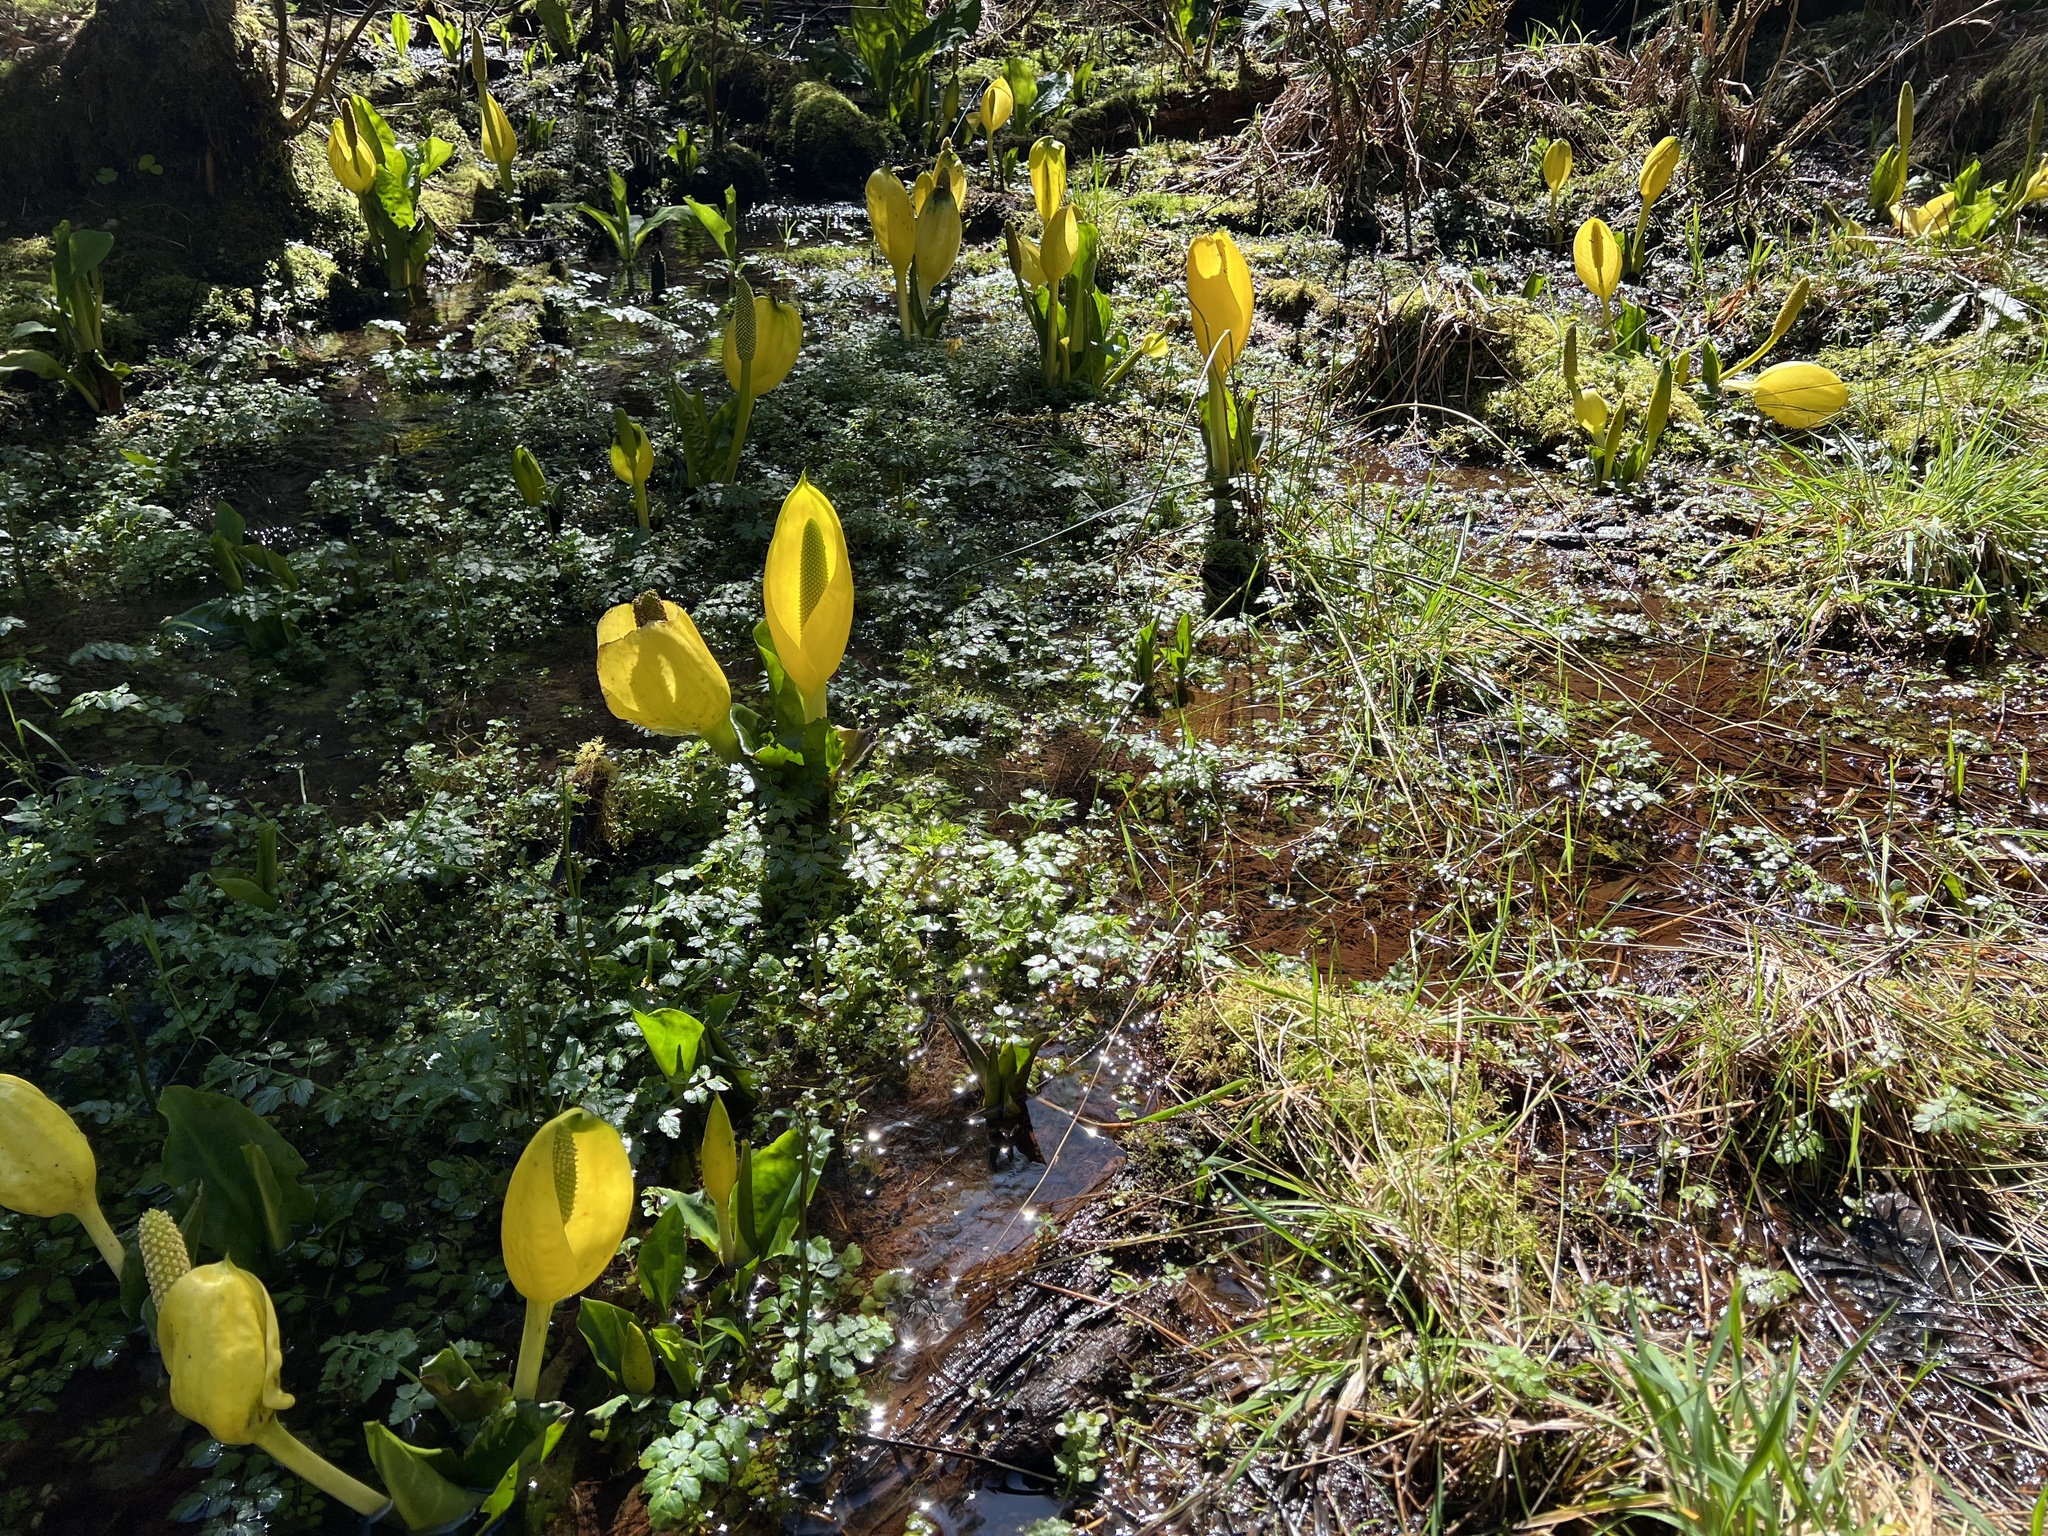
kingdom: Plantae
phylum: Tracheophyta
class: Liliopsida
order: Alismatales
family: Araceae
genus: Lysichiton
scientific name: Lysichiton americanus
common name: American skunk cabbage
